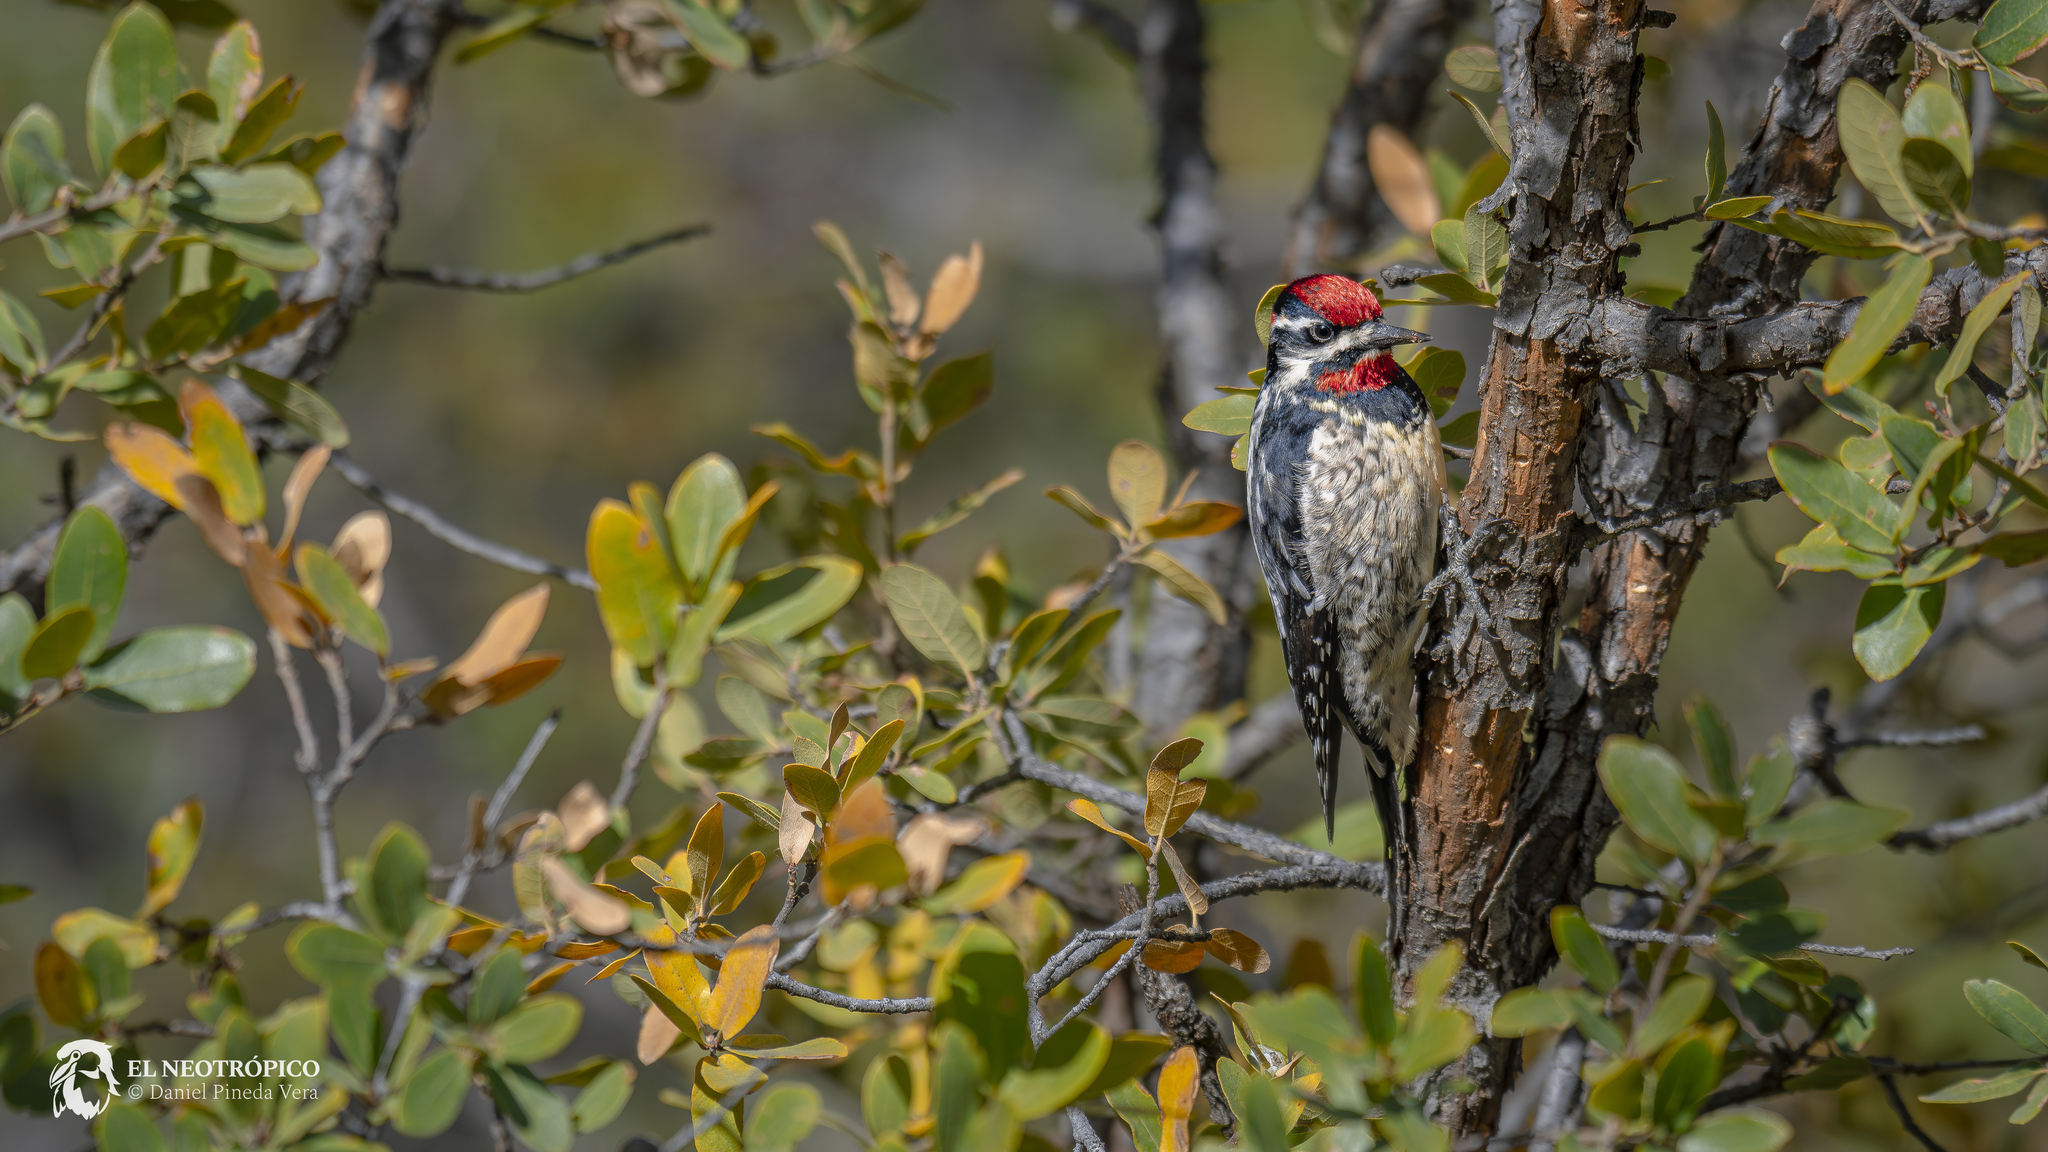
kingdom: Animalia
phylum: Chordata
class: Aves
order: Piciformes
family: Picidae
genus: Sphyrapicus
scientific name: Sphyrapicus nuchalis
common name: Red-naped sapsucker
